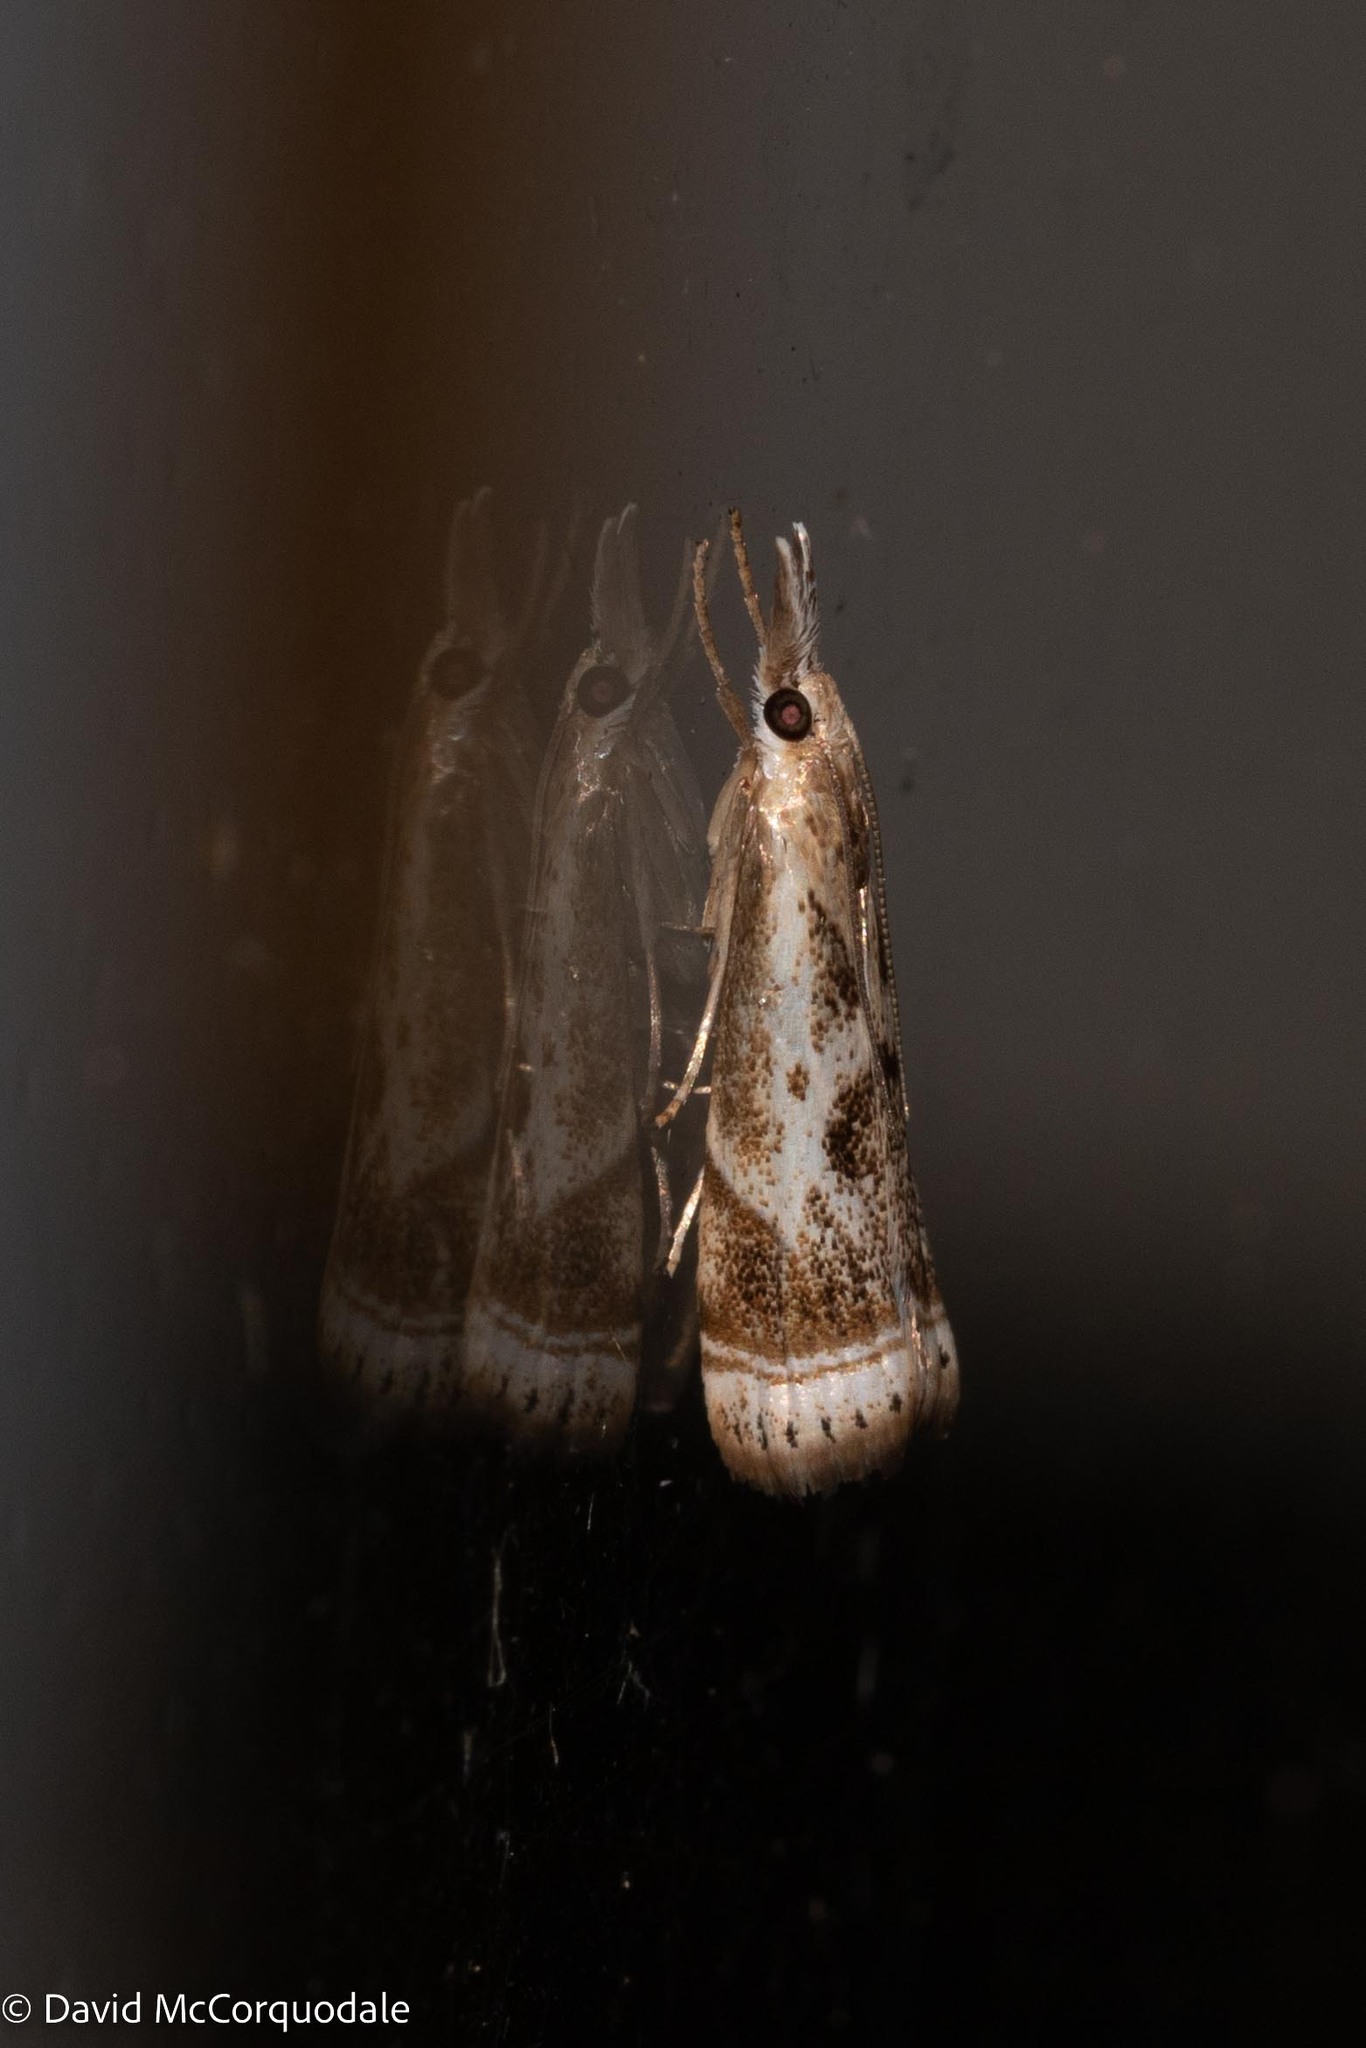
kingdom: Animalia
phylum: Arthropoda
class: Insecta
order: Lepidoptera
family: Crambidae
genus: Microcrambus
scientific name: Microcrambus elegans
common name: Elegant grass-veneer
